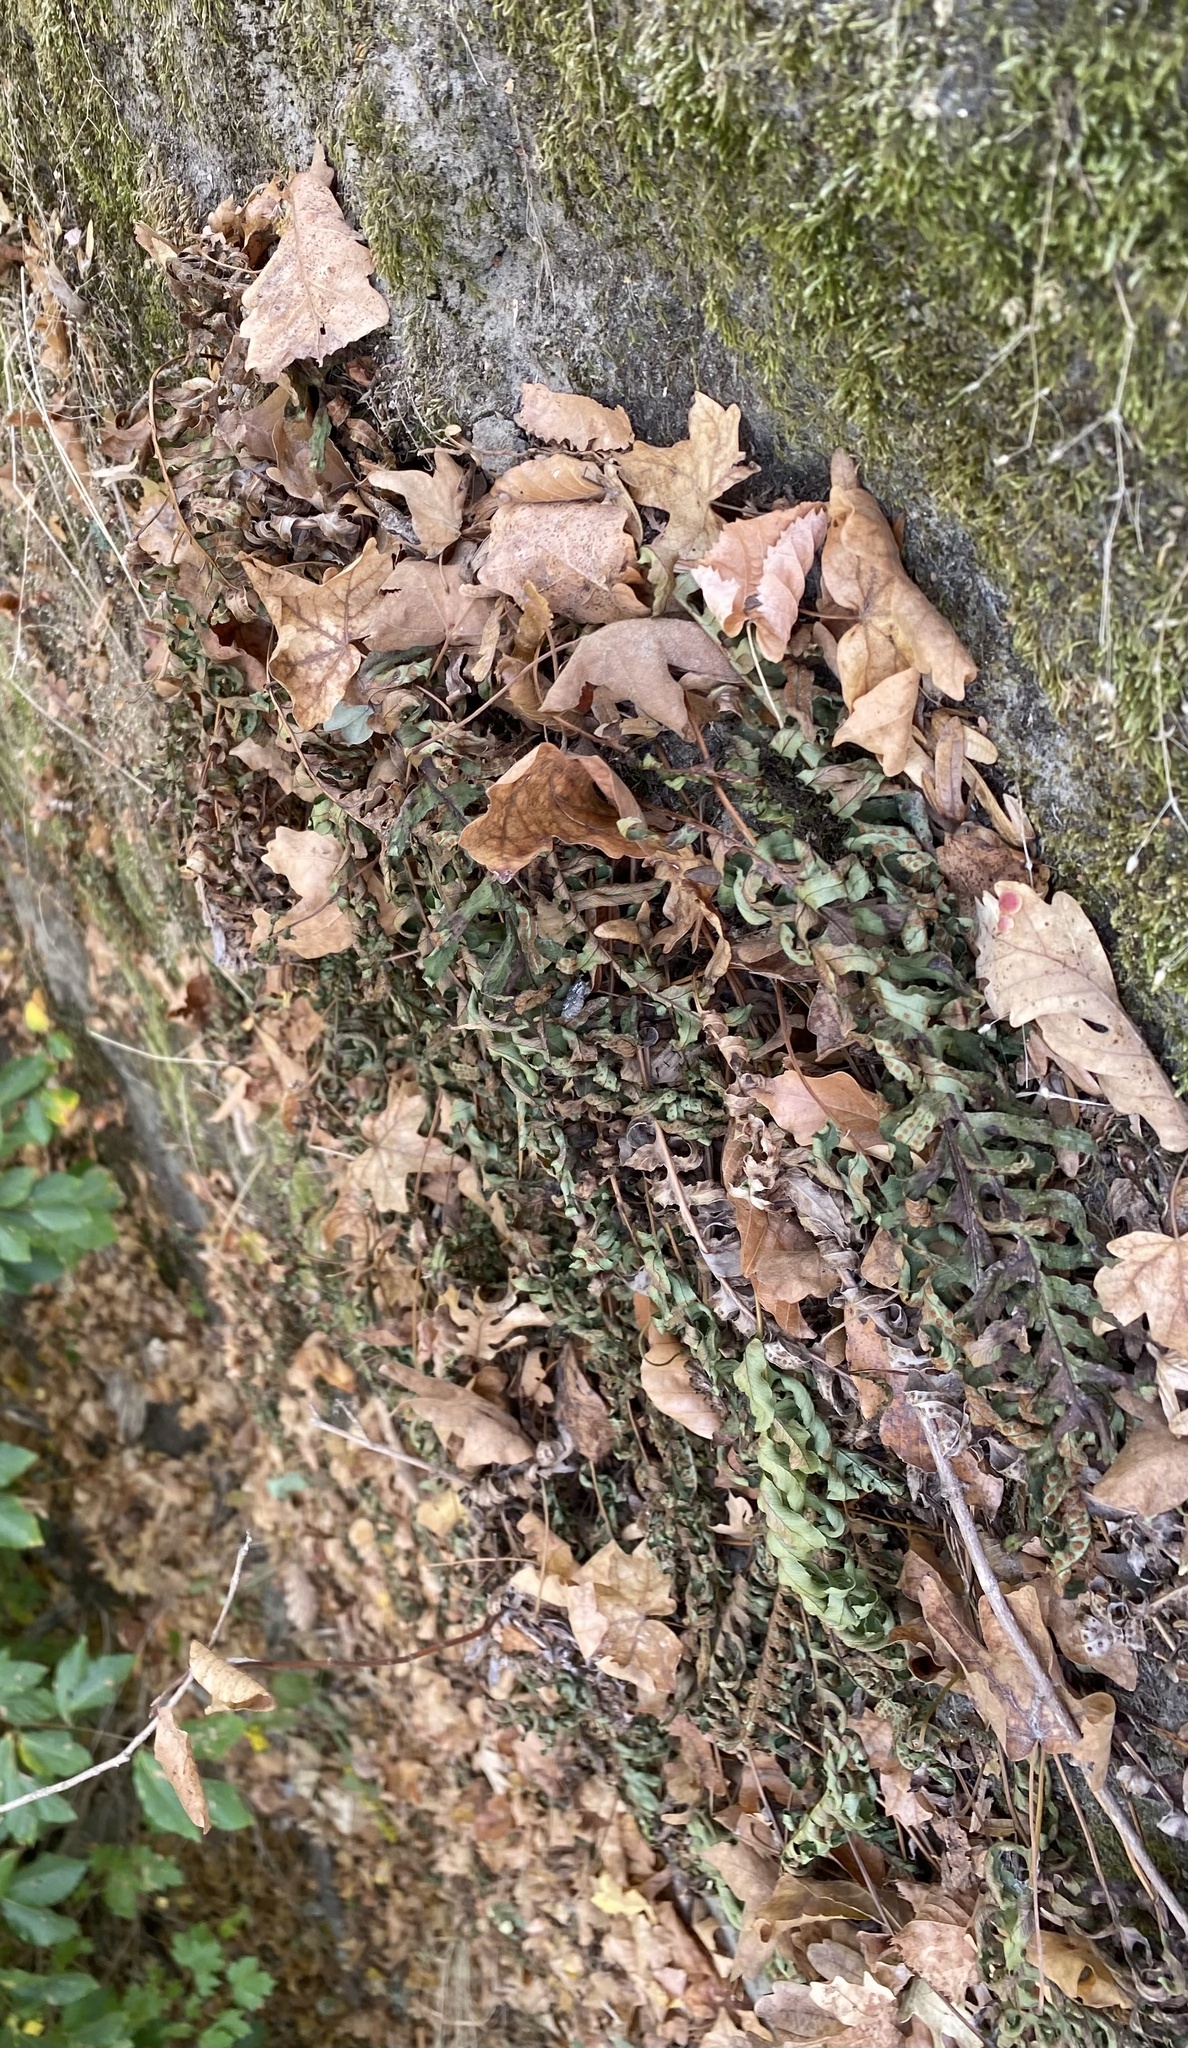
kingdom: Plantae
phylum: Tracheophyta
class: Polypodiopsida
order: Polypodiales
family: Polypodiaceae
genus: Polypodium
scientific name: Polypodium vulgare
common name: Common polypody
